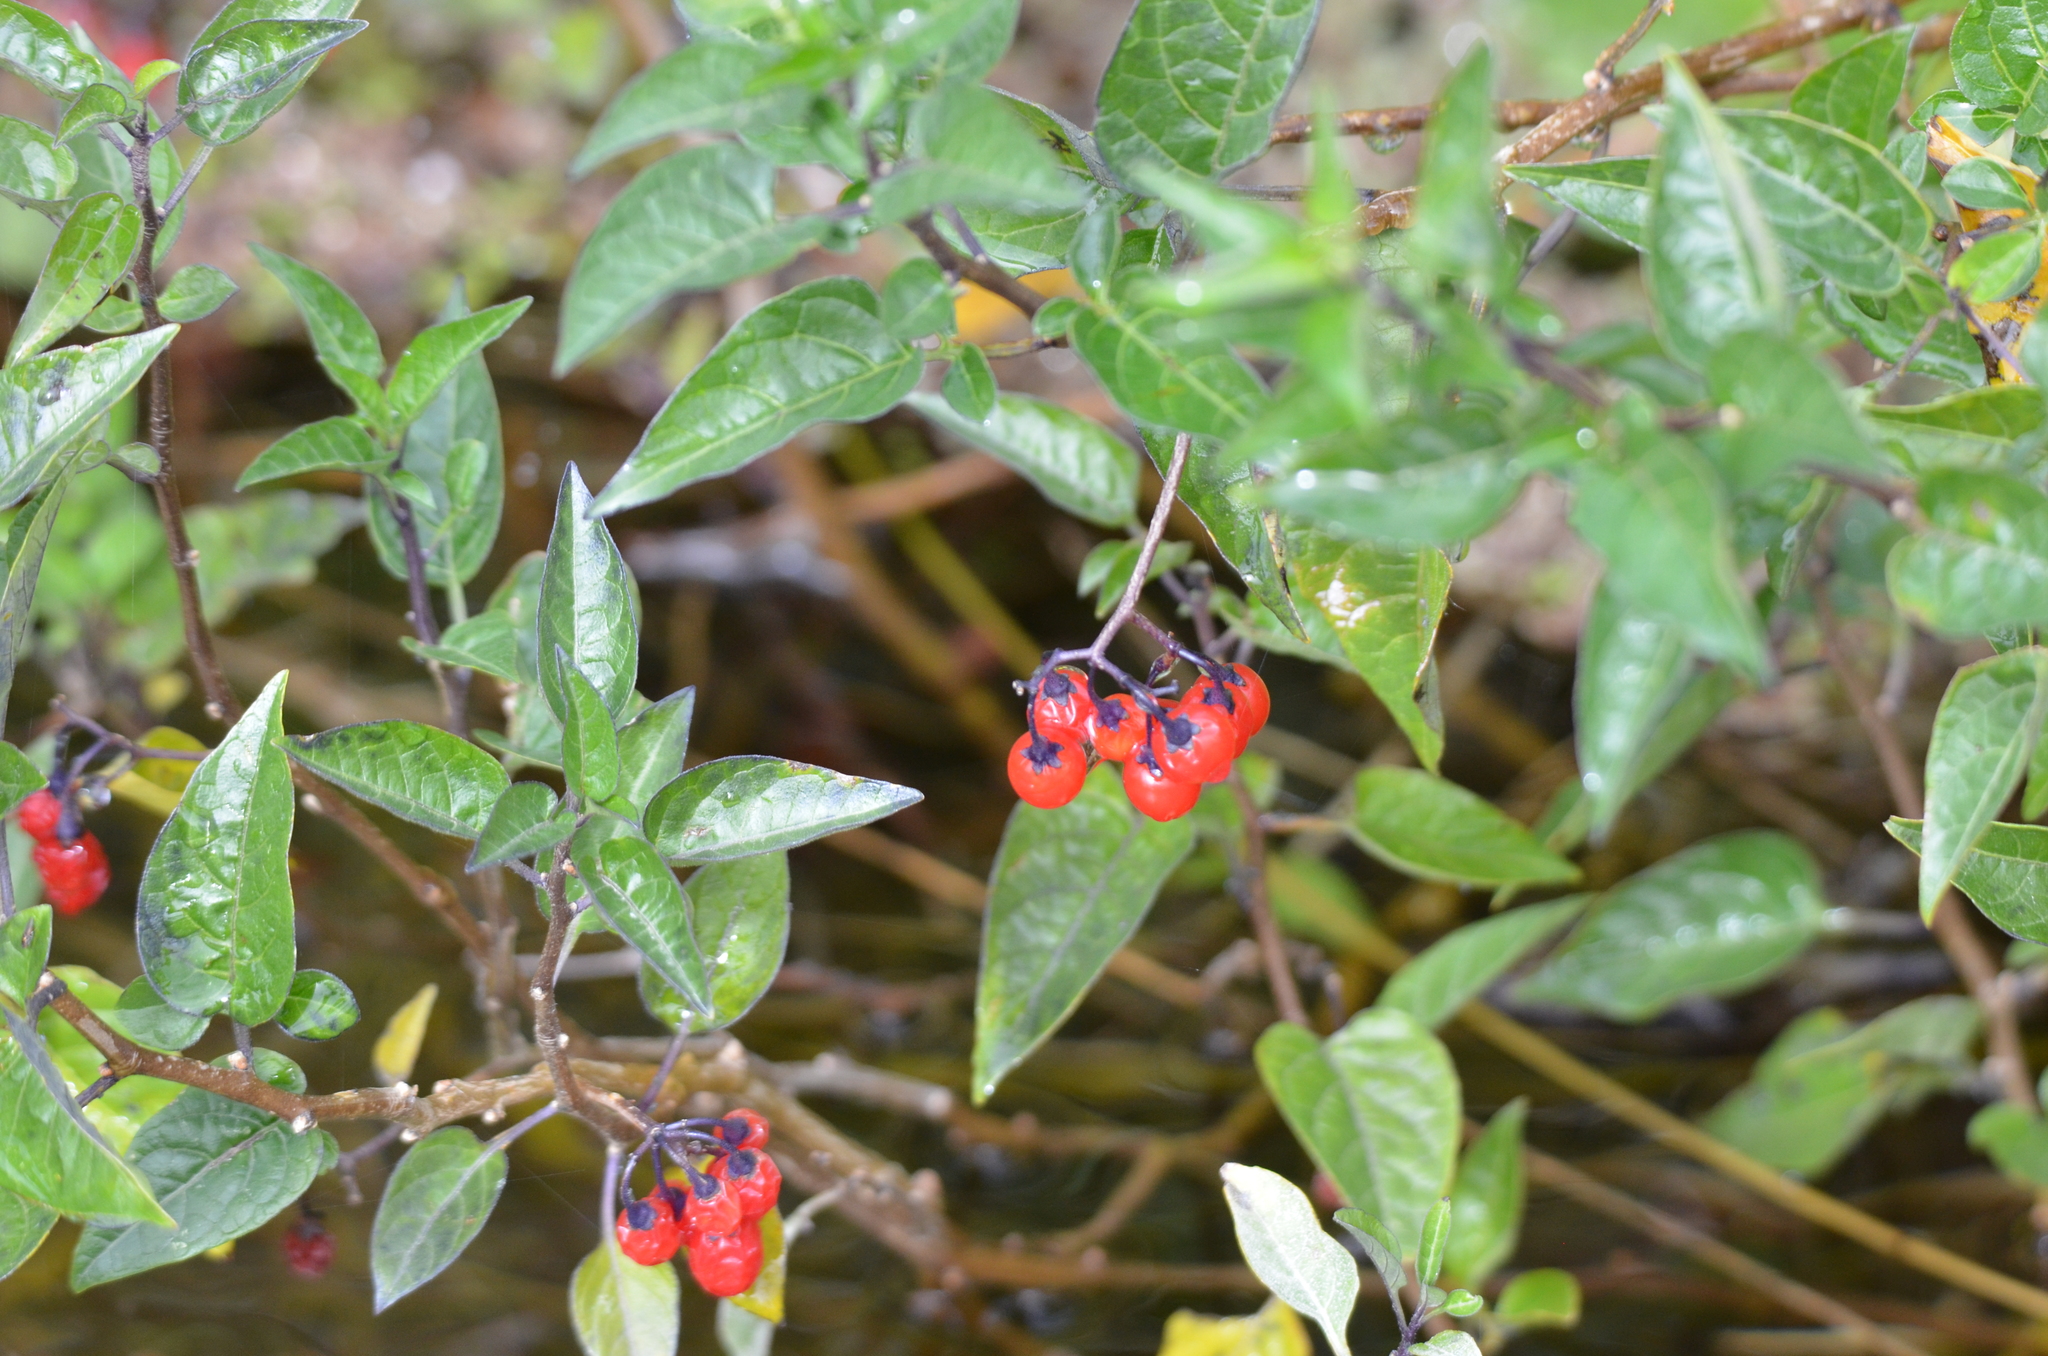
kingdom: Plantae
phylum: Tracheophyta
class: Magnoliopsida
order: Solanales
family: Solanaceae
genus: Solanum
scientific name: Solanum dulcamara
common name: Climbing nightshade
